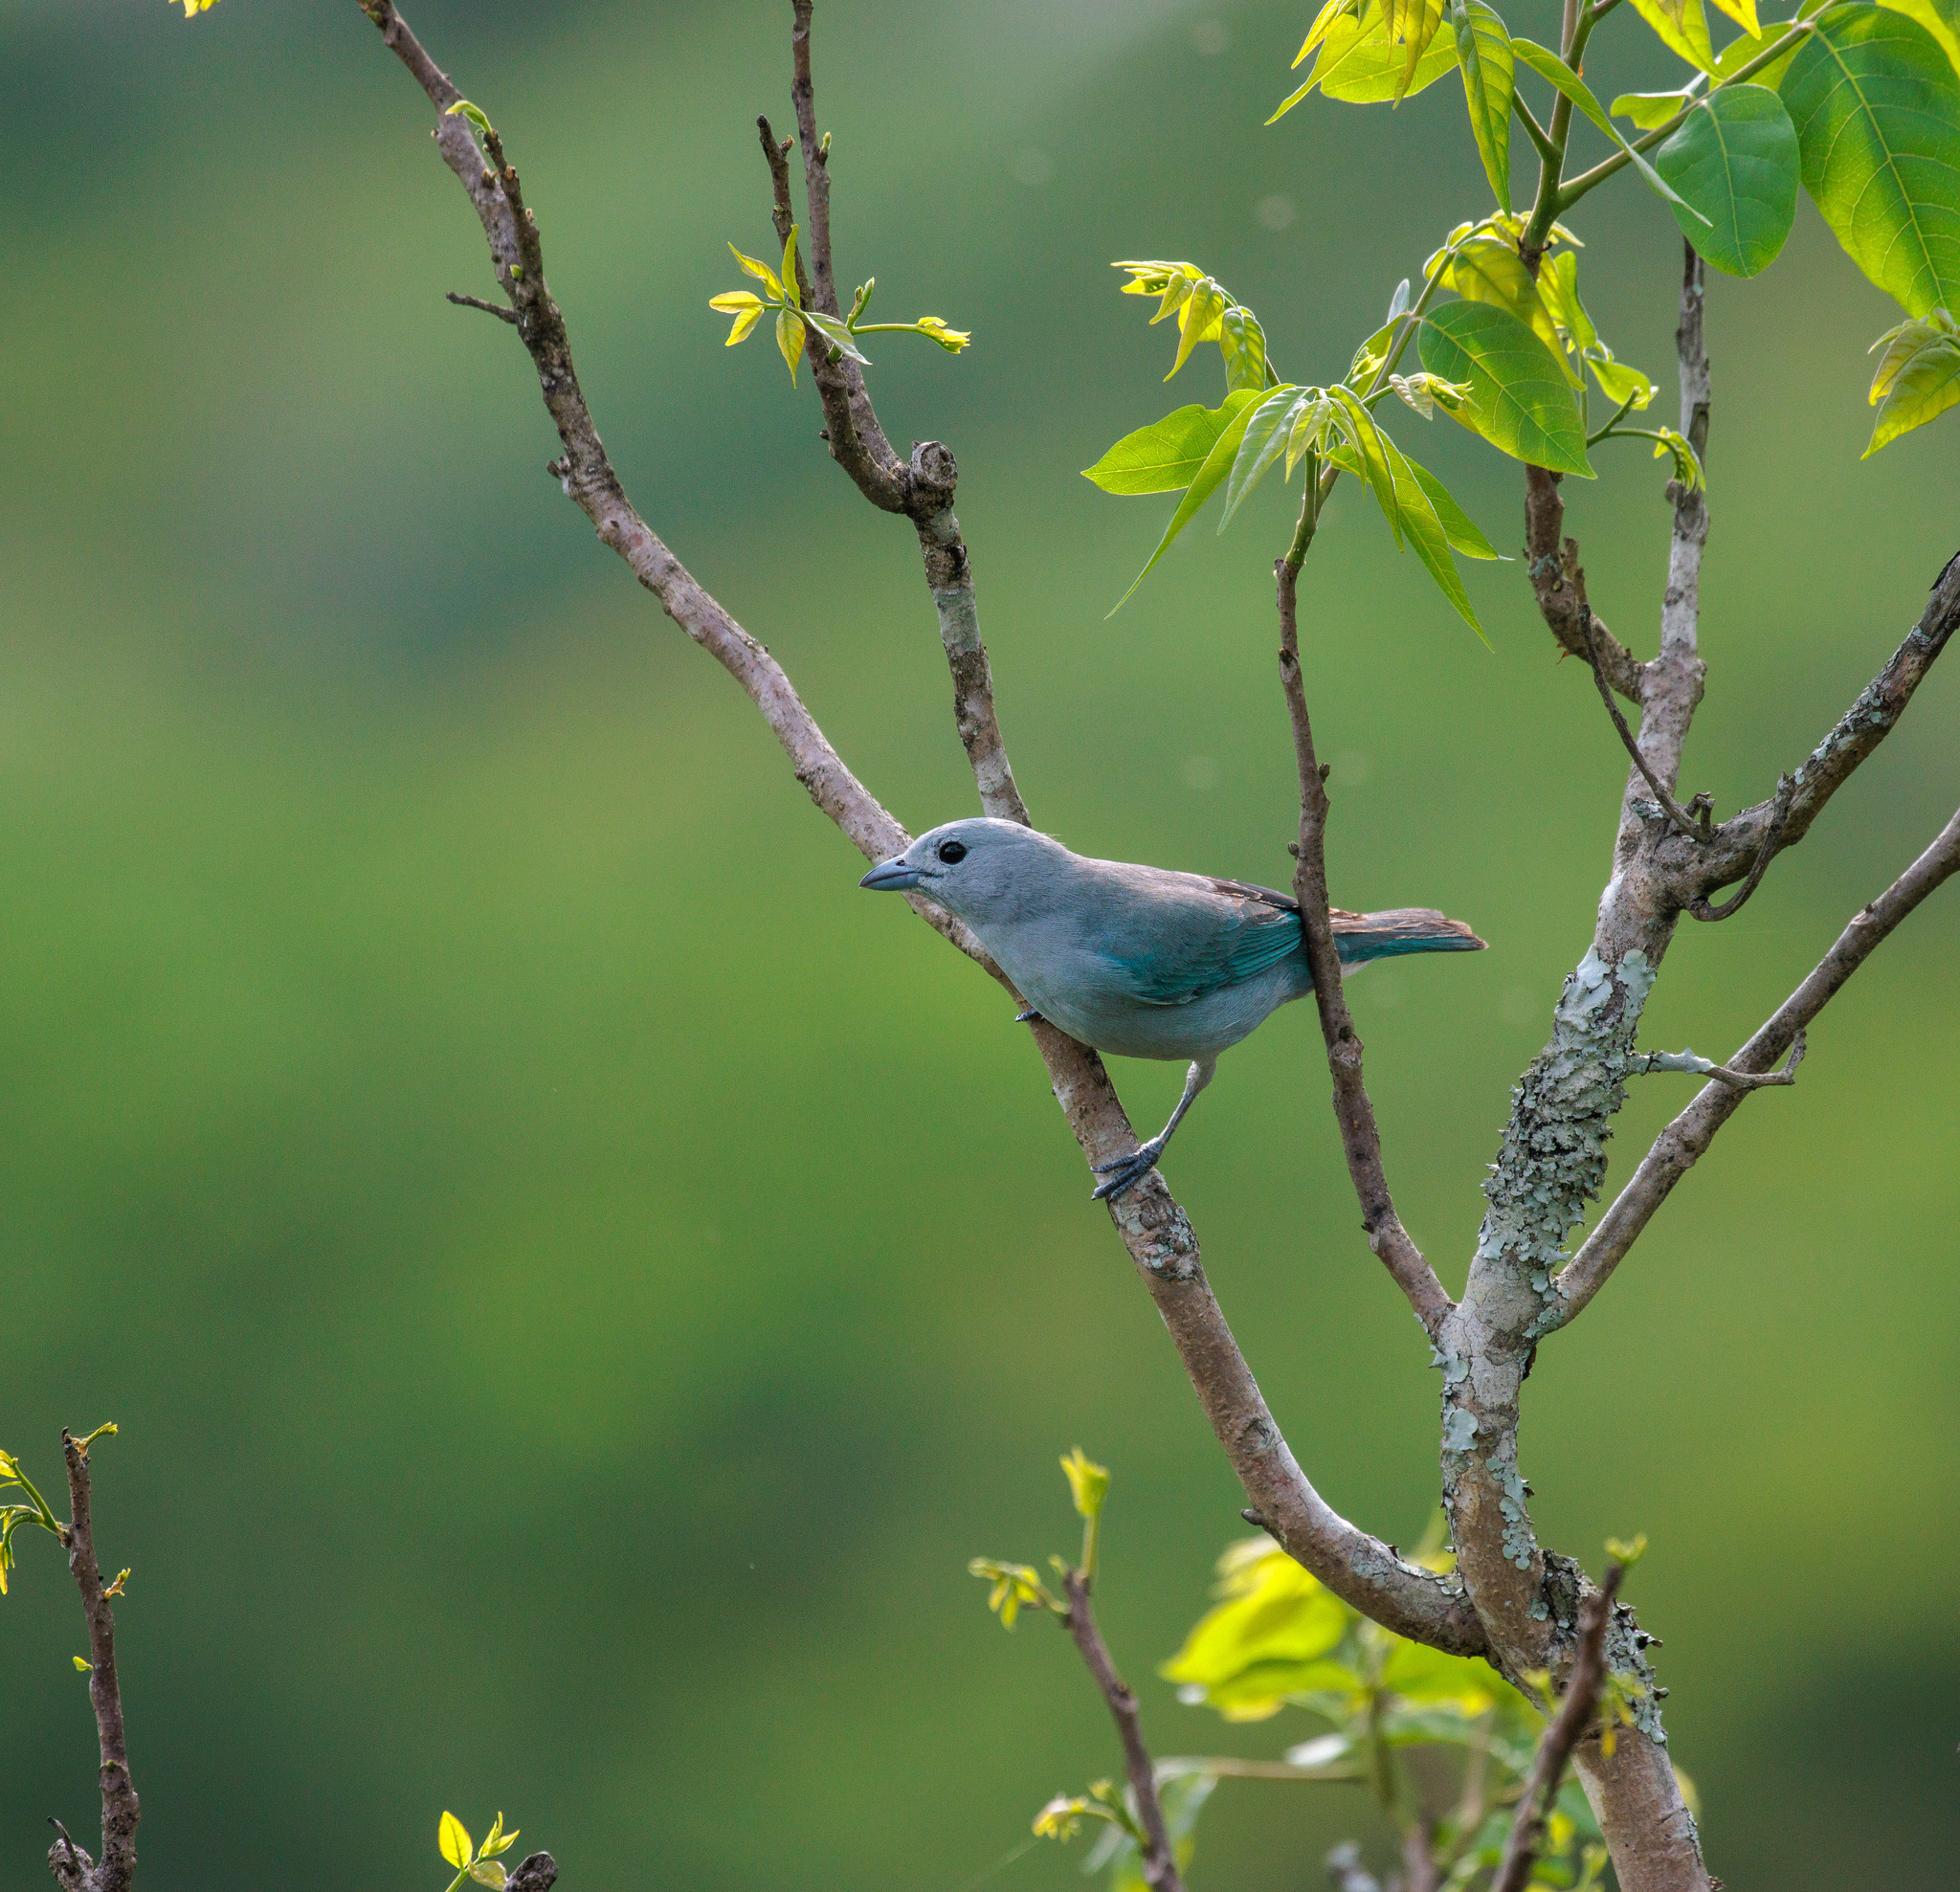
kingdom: Animalia
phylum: Chordata
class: Aves
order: Passeriformes
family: Thraupidae
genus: Thraupis
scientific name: Thraupis sayaca
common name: Sayaca tanager
